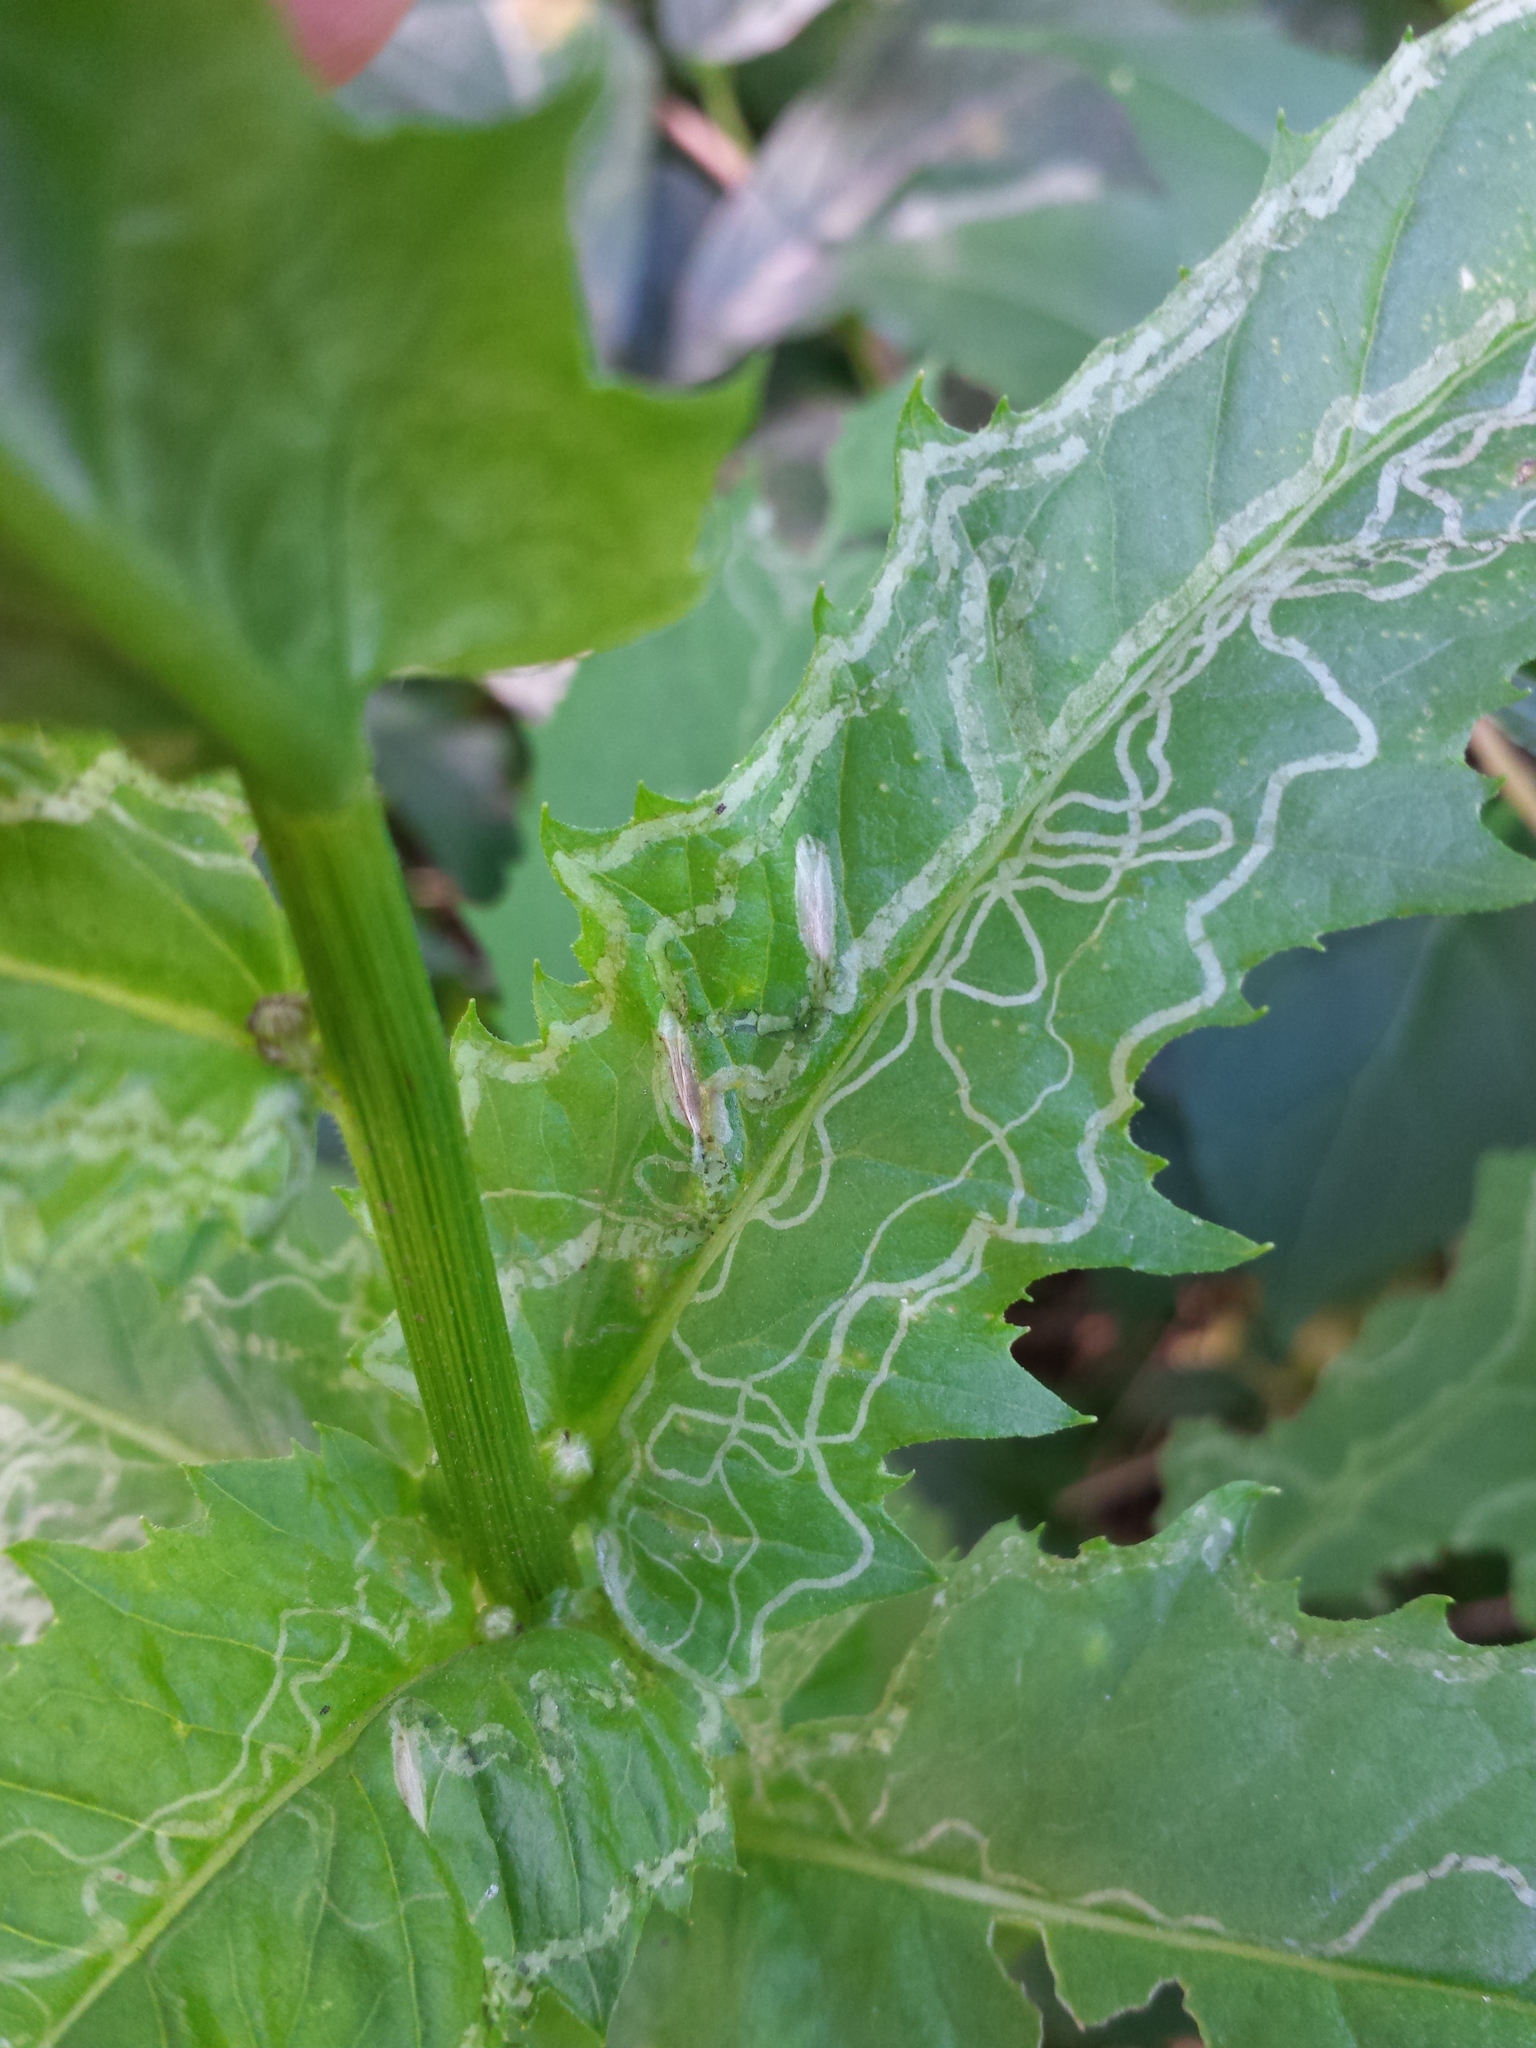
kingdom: Animalia
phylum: Arthropoda
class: Insecta
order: Lepidoptera
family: Gracillariidae
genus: Phyllocnistis
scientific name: Phyllocnistis insignis
